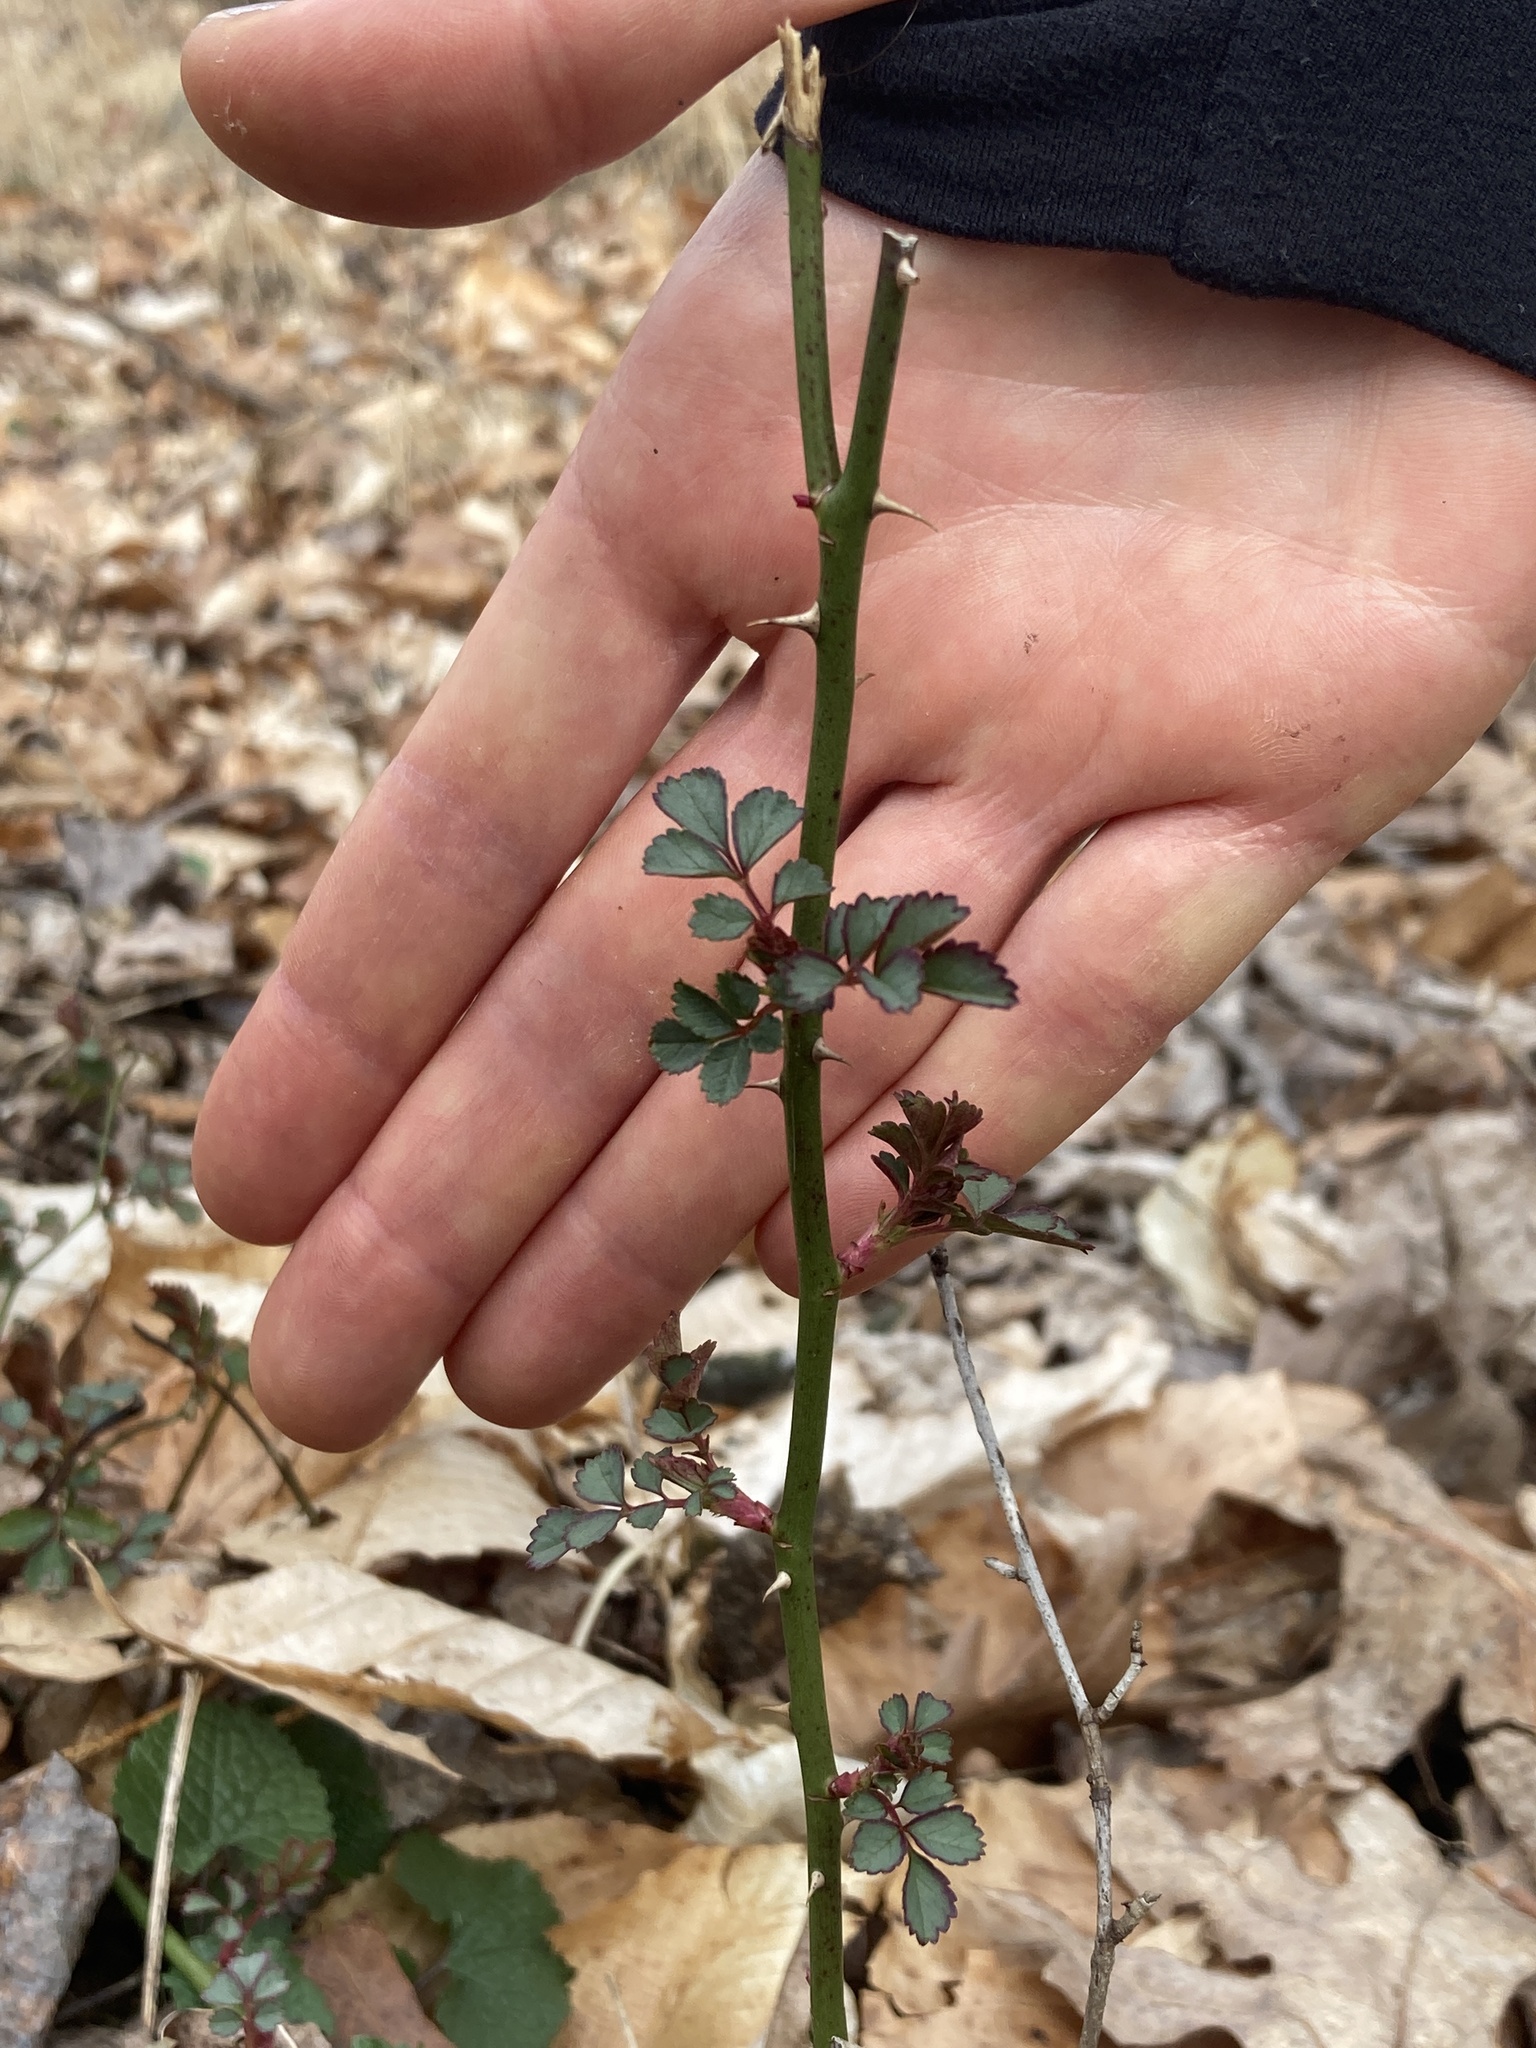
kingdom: Plantae
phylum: Tracheophyta
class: Magnoliopsida
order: Rosales
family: Rosaceae
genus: Rosa
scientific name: Rosa multiflora
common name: Multiflora rose
